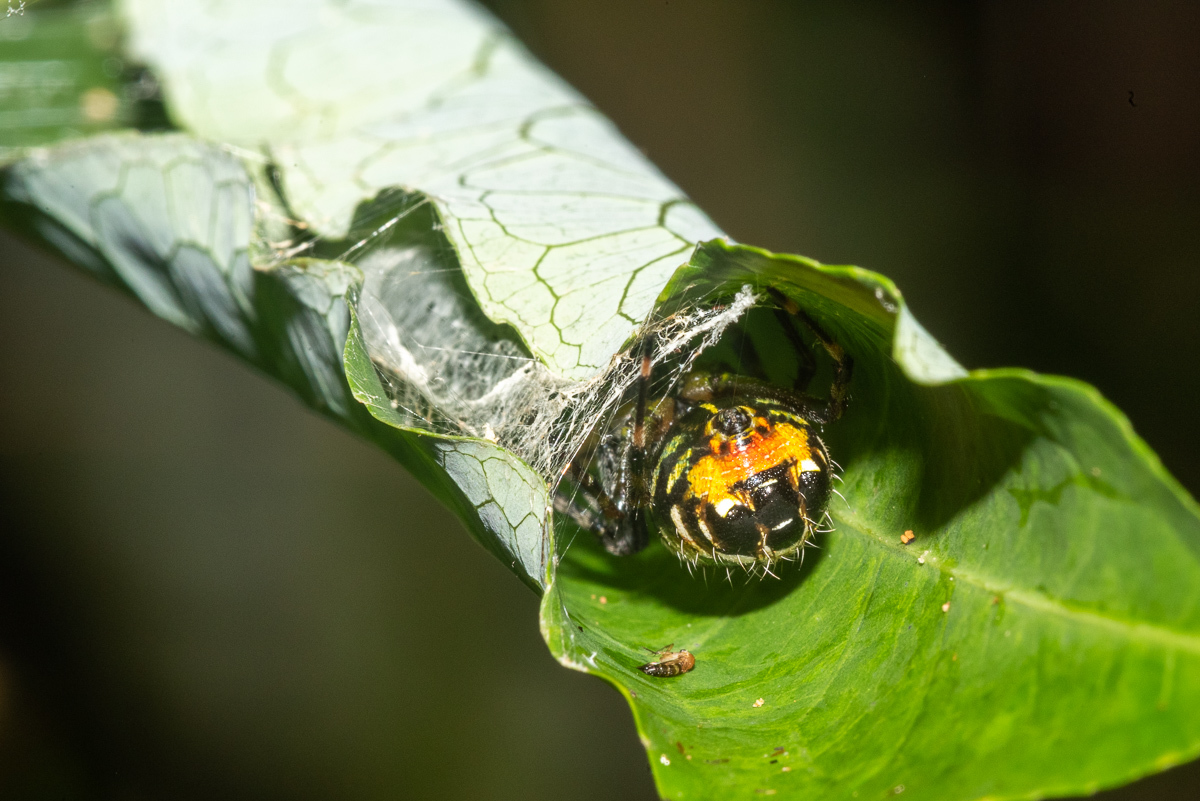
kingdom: Animalia
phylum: Arthropoda
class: Arachnida
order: Araneae
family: Araneidae
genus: Alpaida
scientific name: Alpaida truncata
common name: Orb weavers
